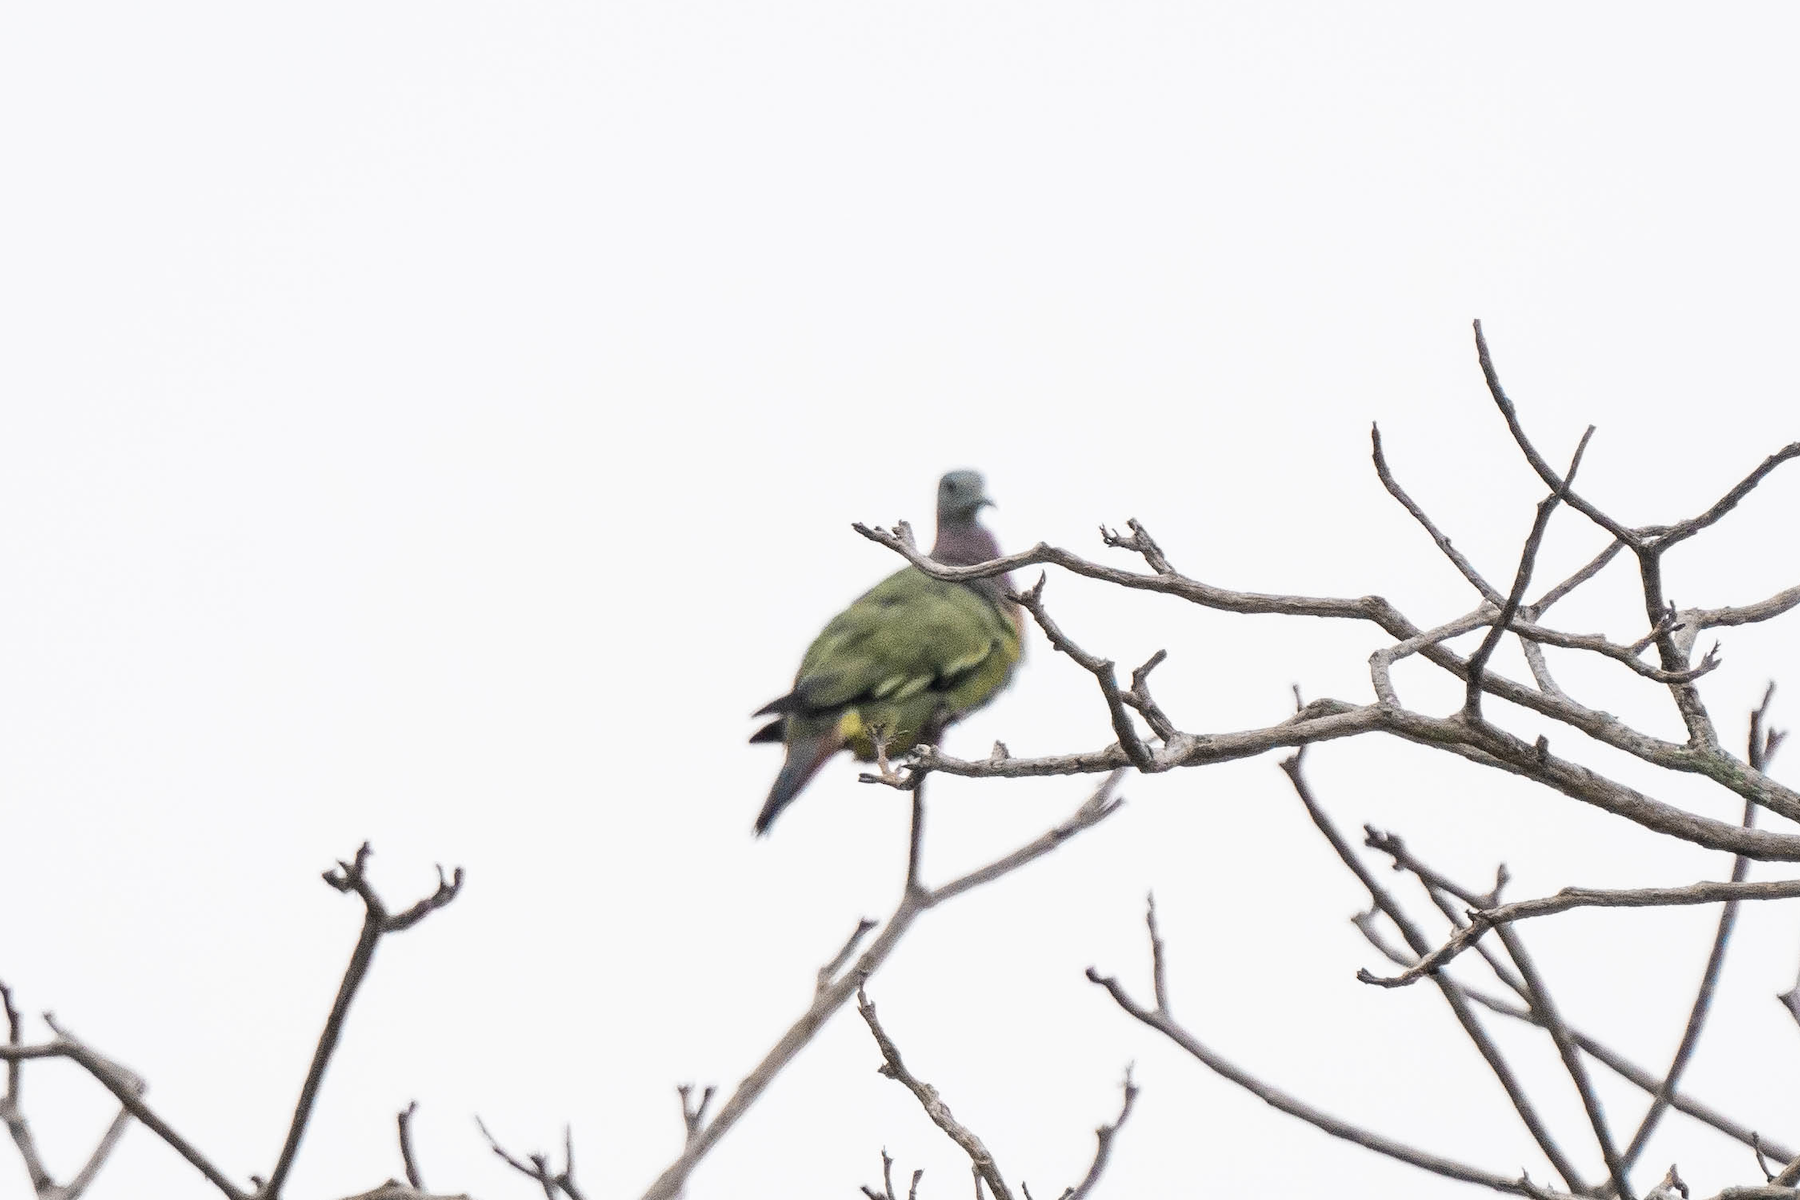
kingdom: Animalia
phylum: Chordata
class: Aves
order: Columbiformes
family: Columbidae
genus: Treron
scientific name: Treron vernans
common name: Pink-necked green pigeon
